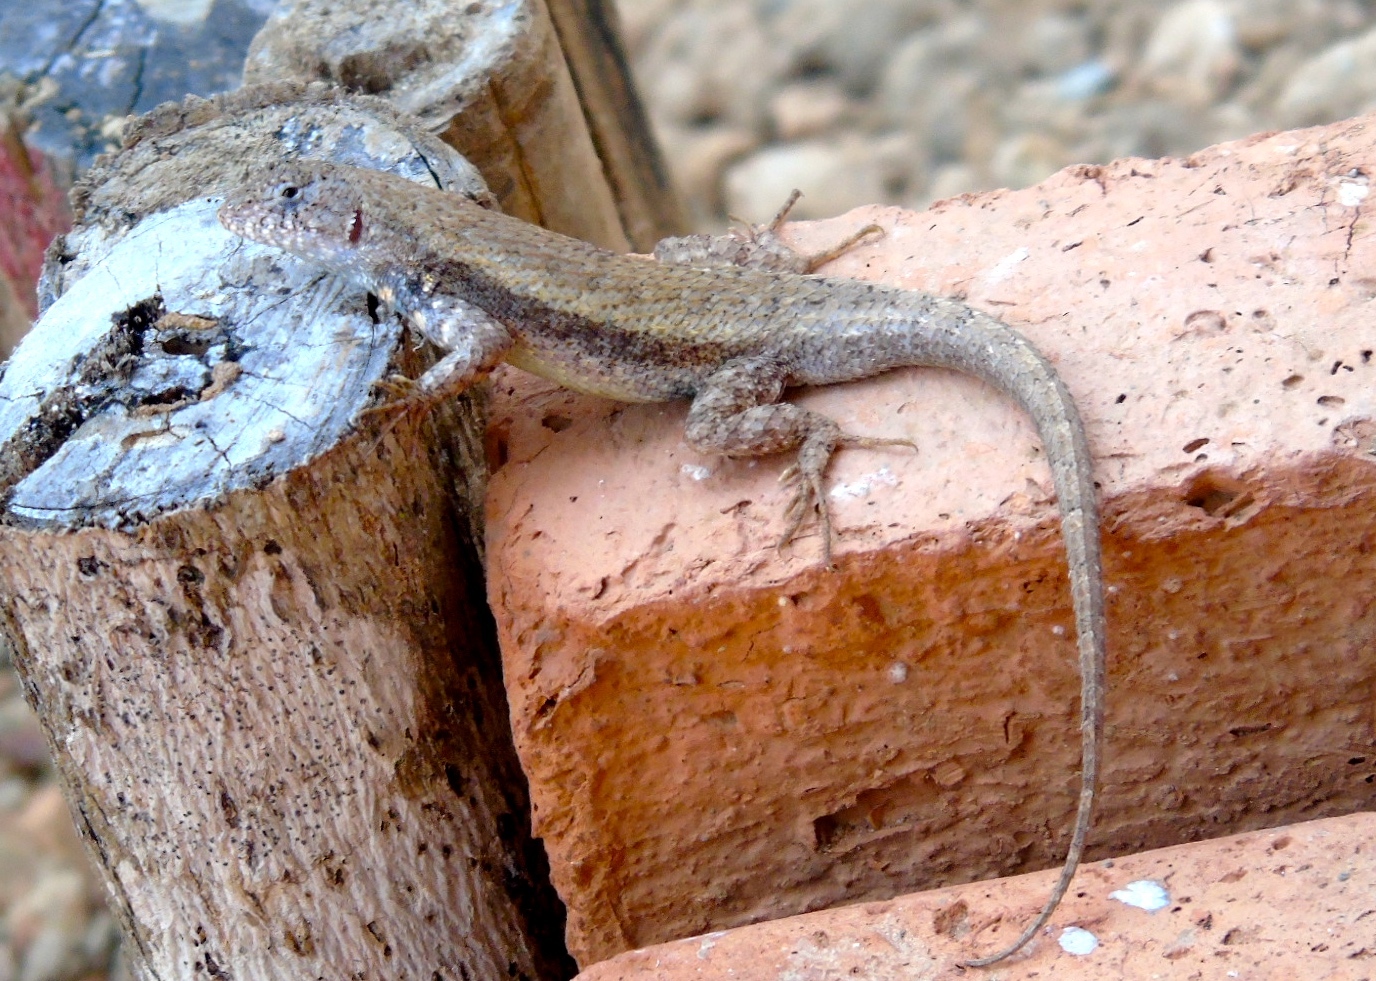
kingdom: Animalia
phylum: Chordata
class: Squamata
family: Phrynosomatidae
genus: Sceloporus
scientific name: Sceloporus nelsoni
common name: Nelson's spiny lizard
